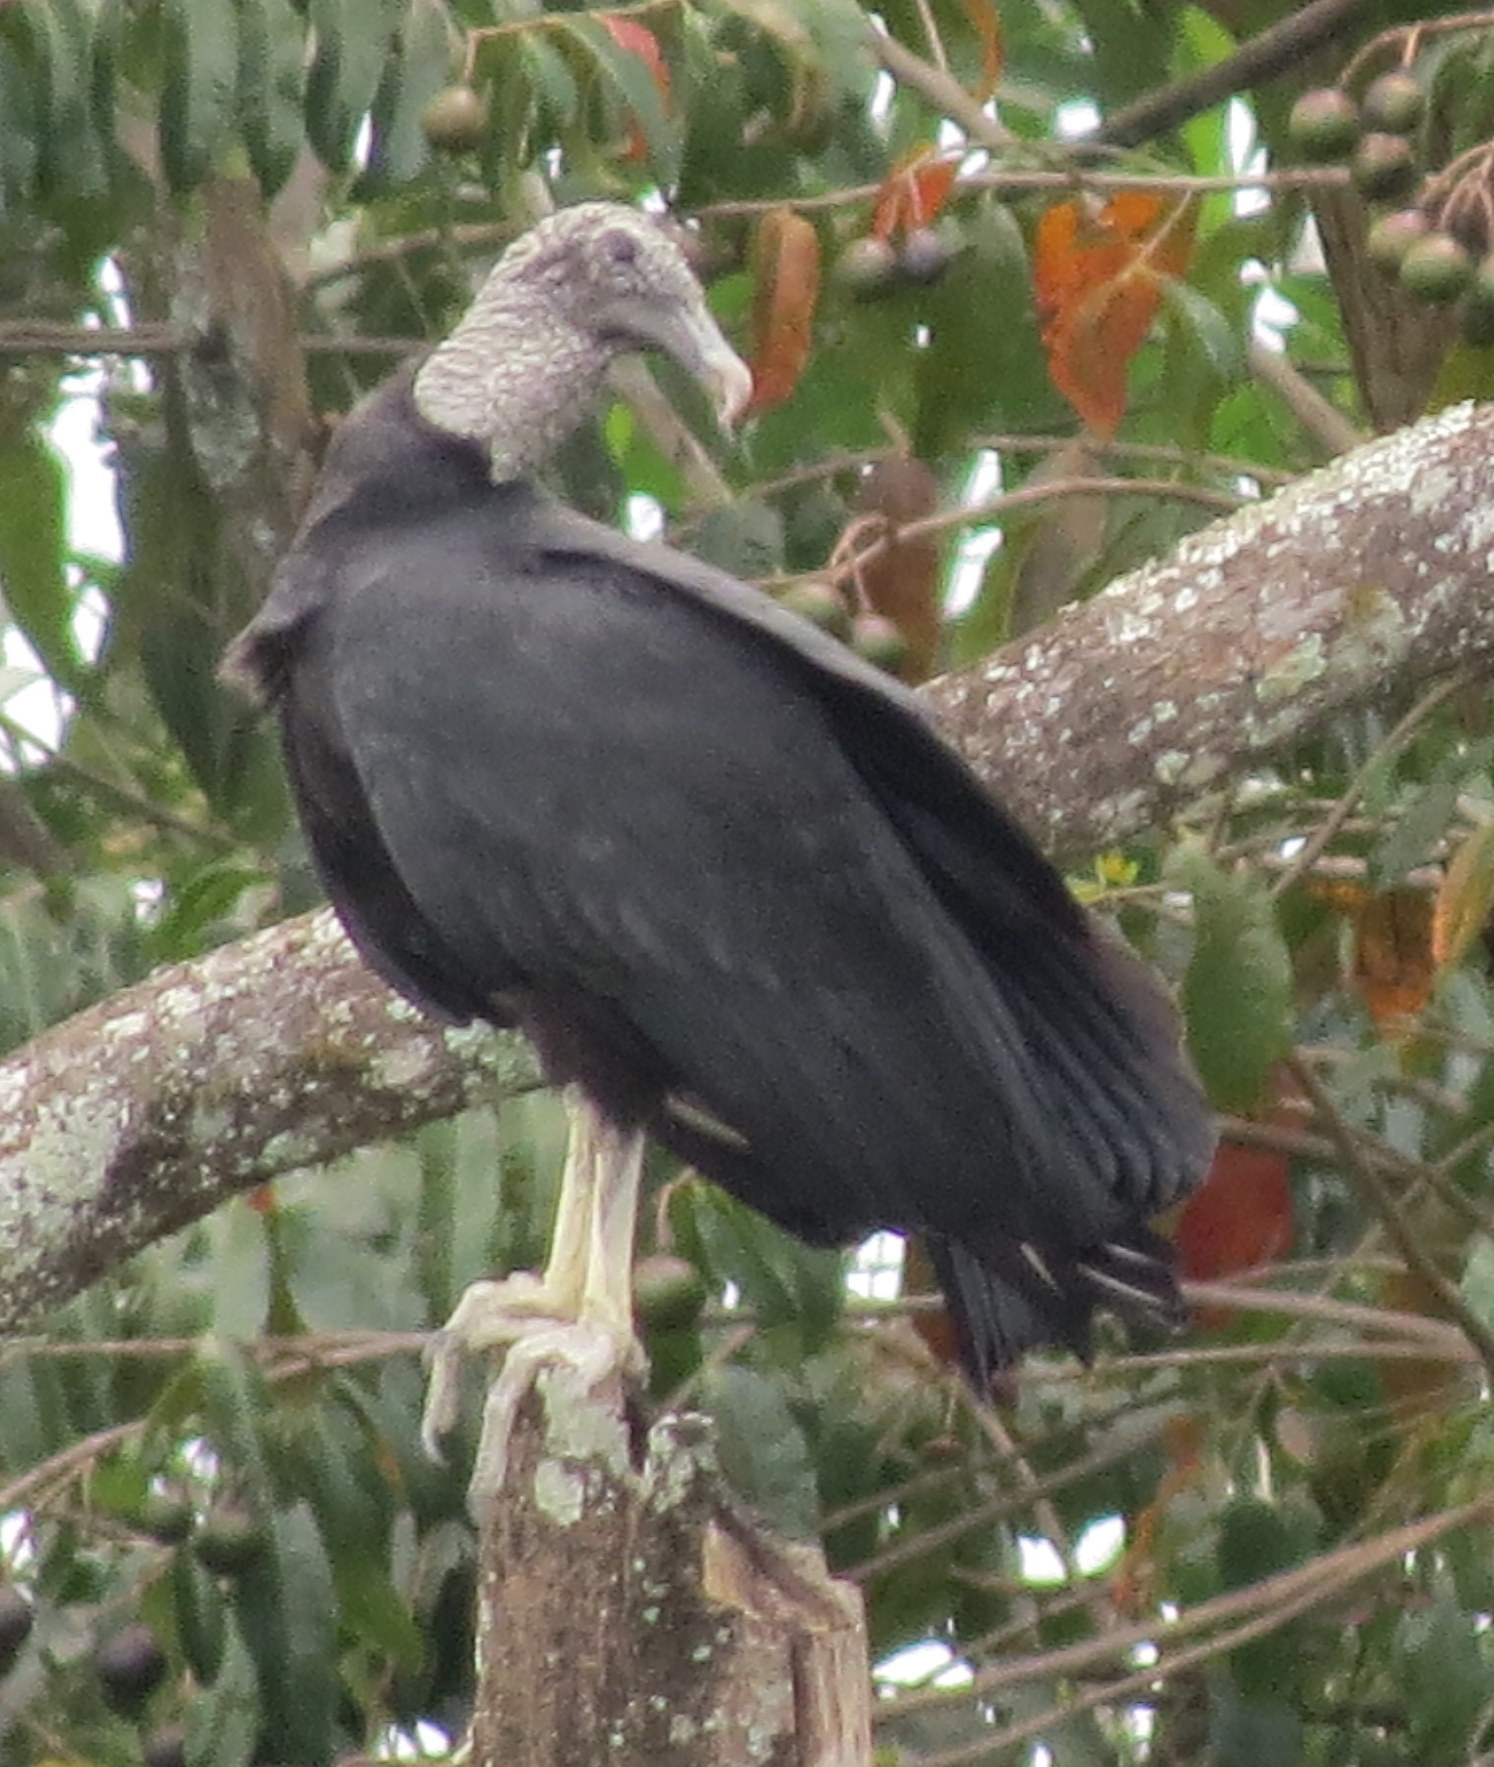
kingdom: Animalia
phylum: Chordata
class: Aves
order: Accipitriformes
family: Cathartidae
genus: Coragyps
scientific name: Coragyps atratus
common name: Black vulture
